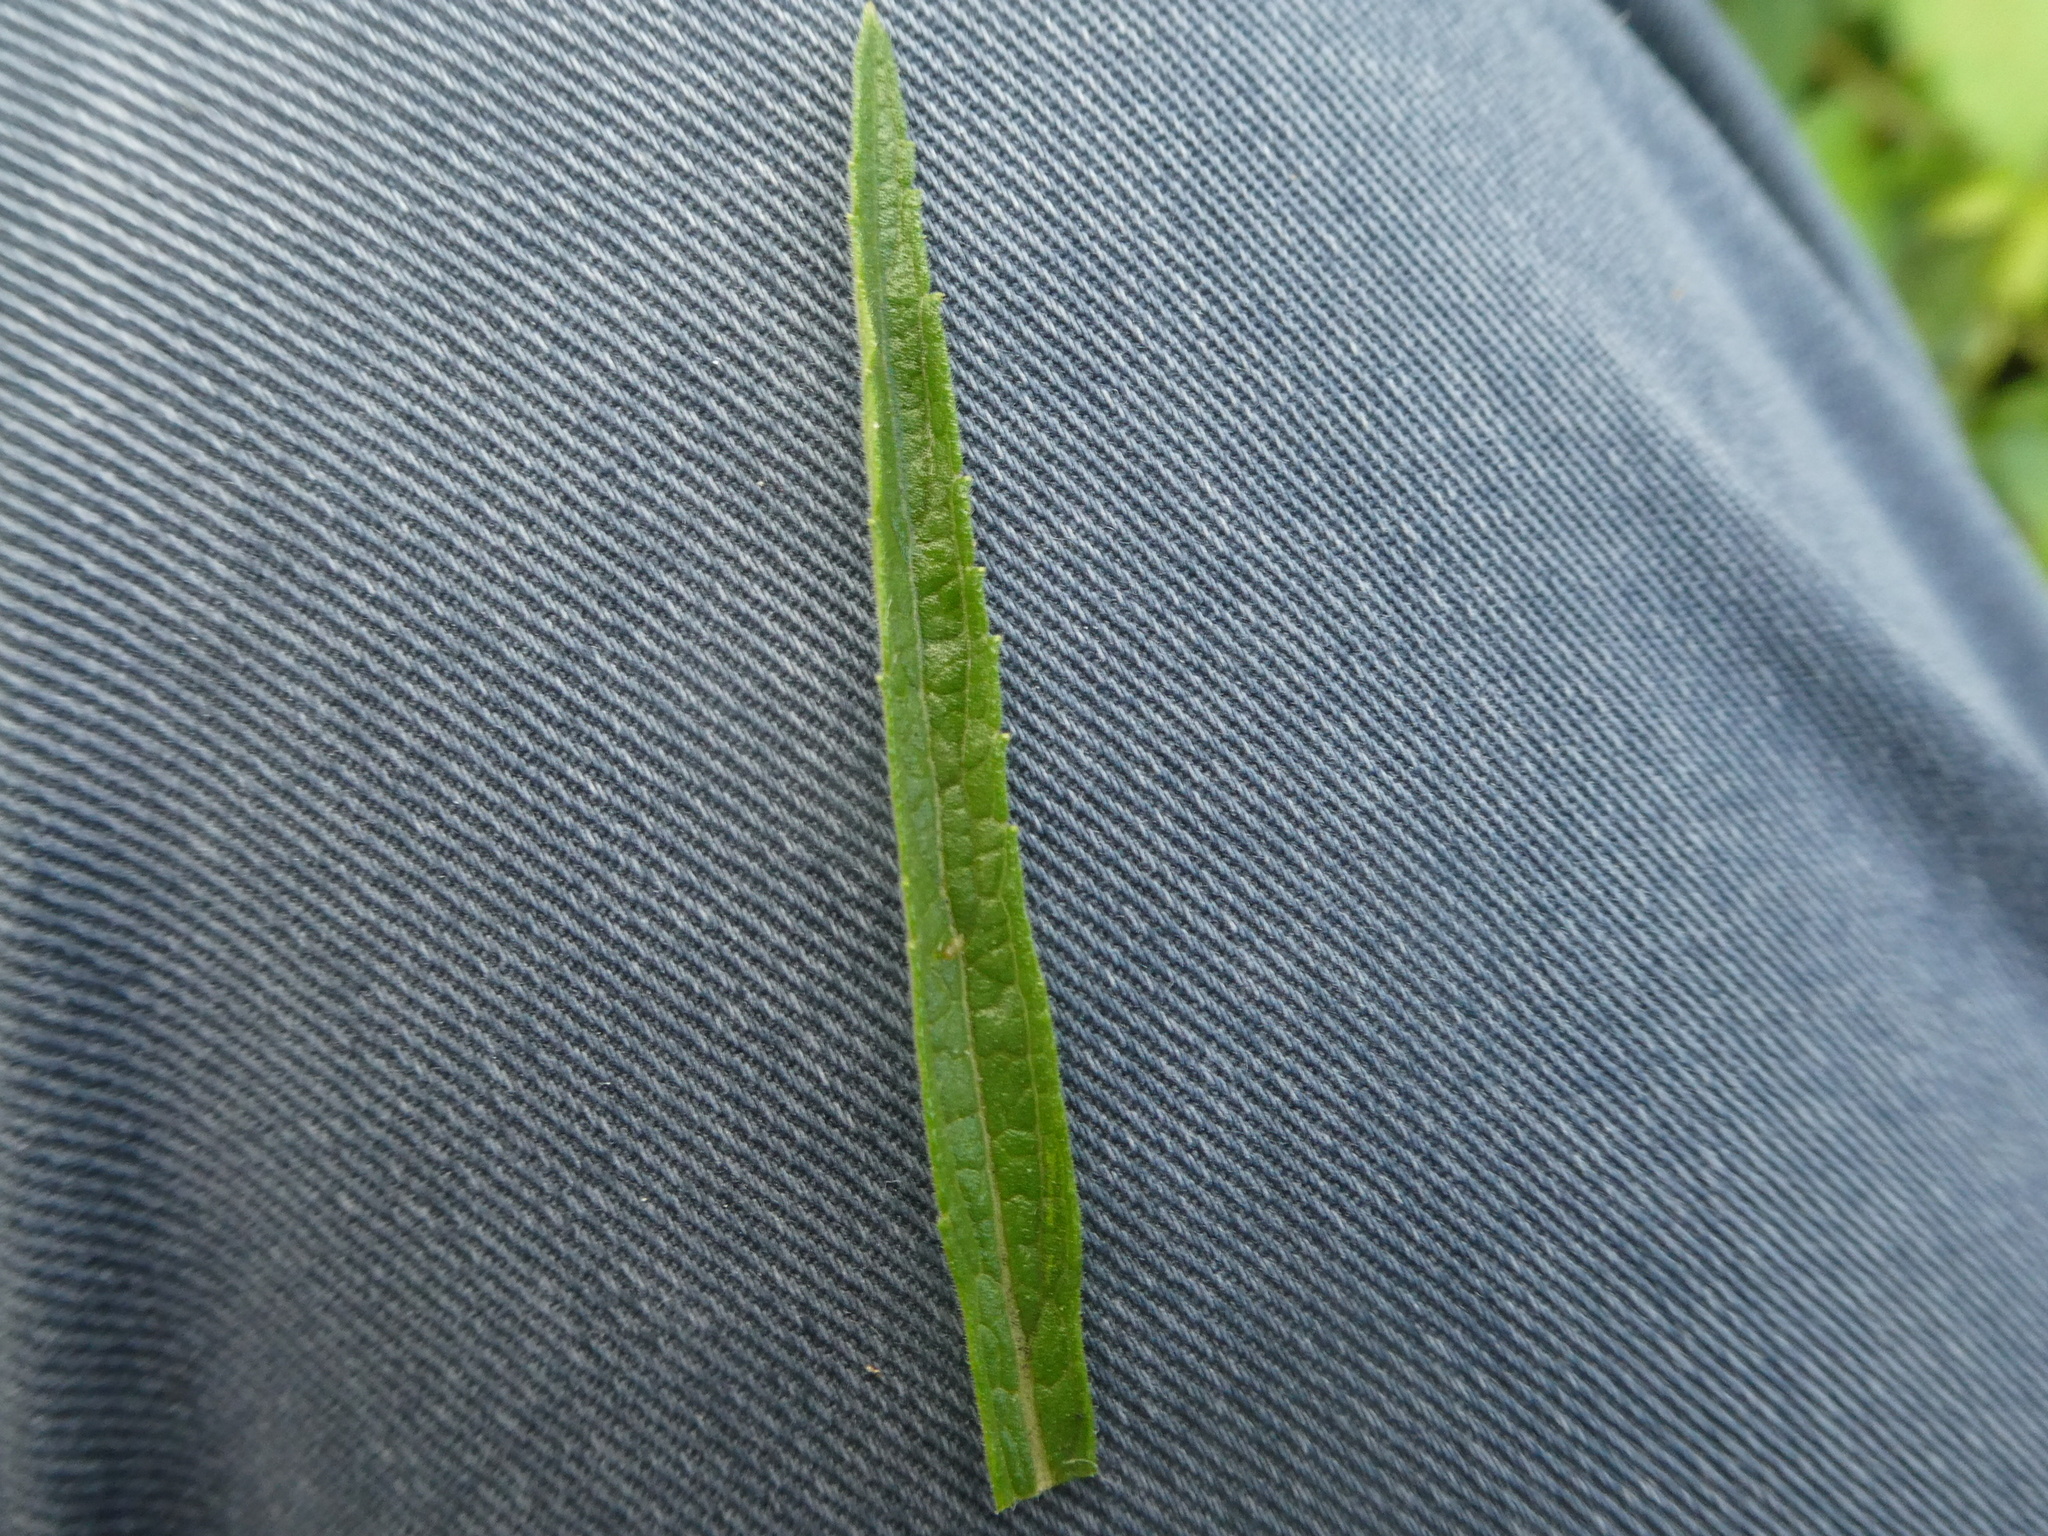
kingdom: Plantae
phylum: Tracheophyta
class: Magnoliopsida
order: Lamiales
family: Verbenaceae
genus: Verbena
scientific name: Verbena bonariensis
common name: Purpletop vervain
